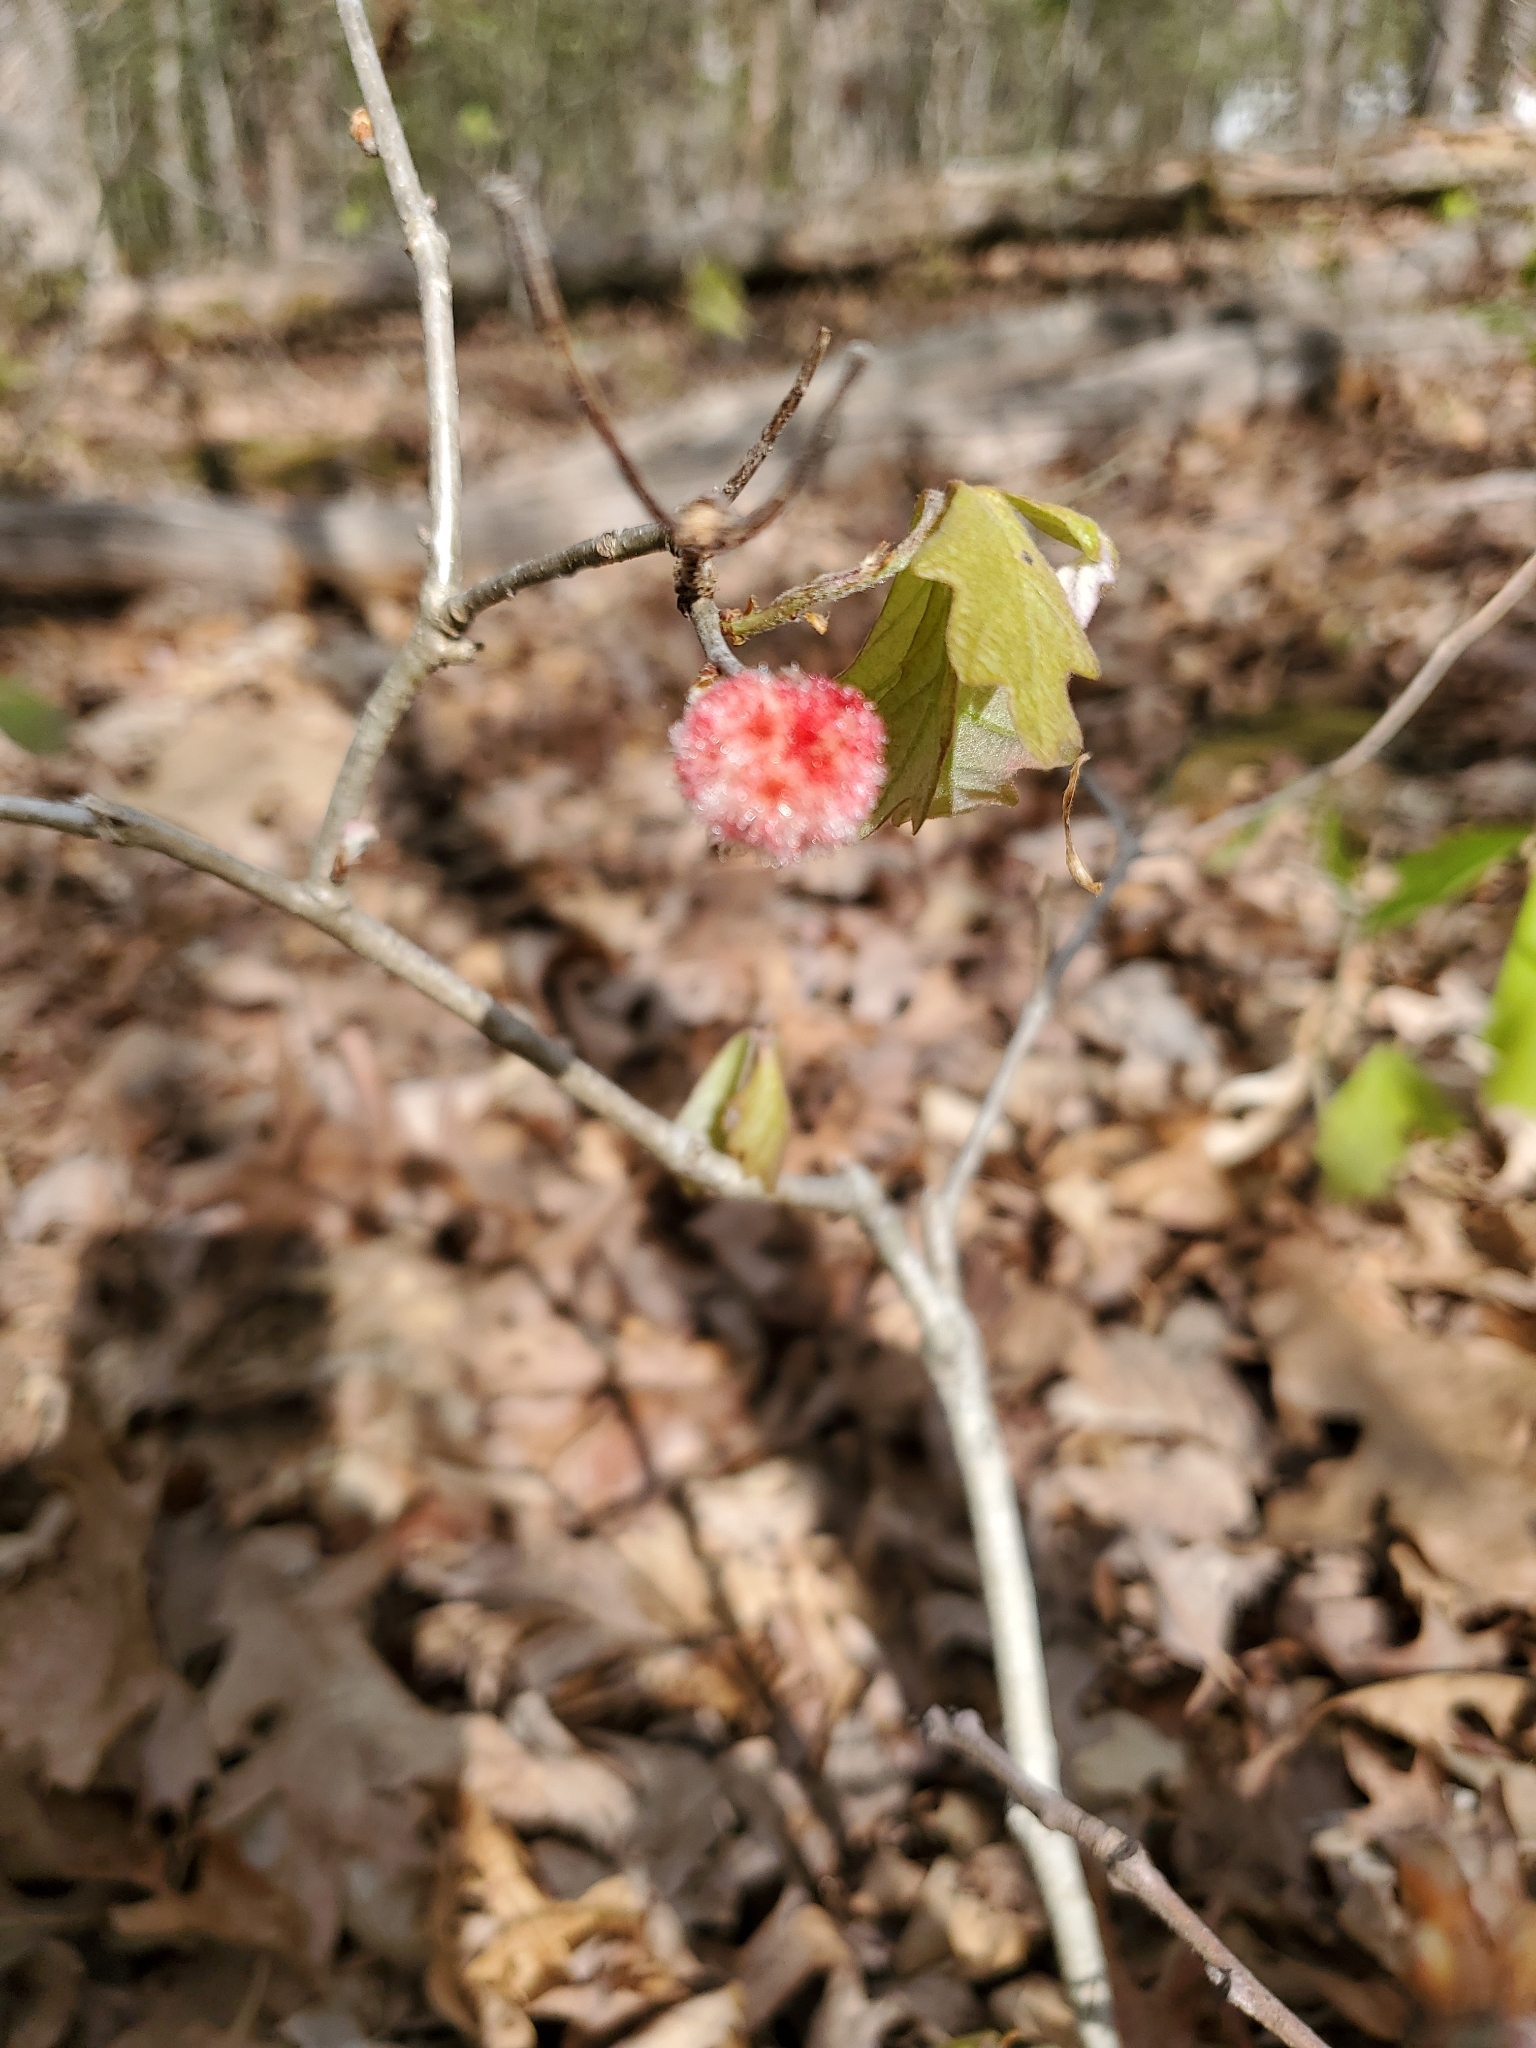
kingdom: Animalia
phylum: Arthropoda
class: Insecta
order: Hymenoptera
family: Cynipidae
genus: Callirhytis
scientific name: Callirhytis
